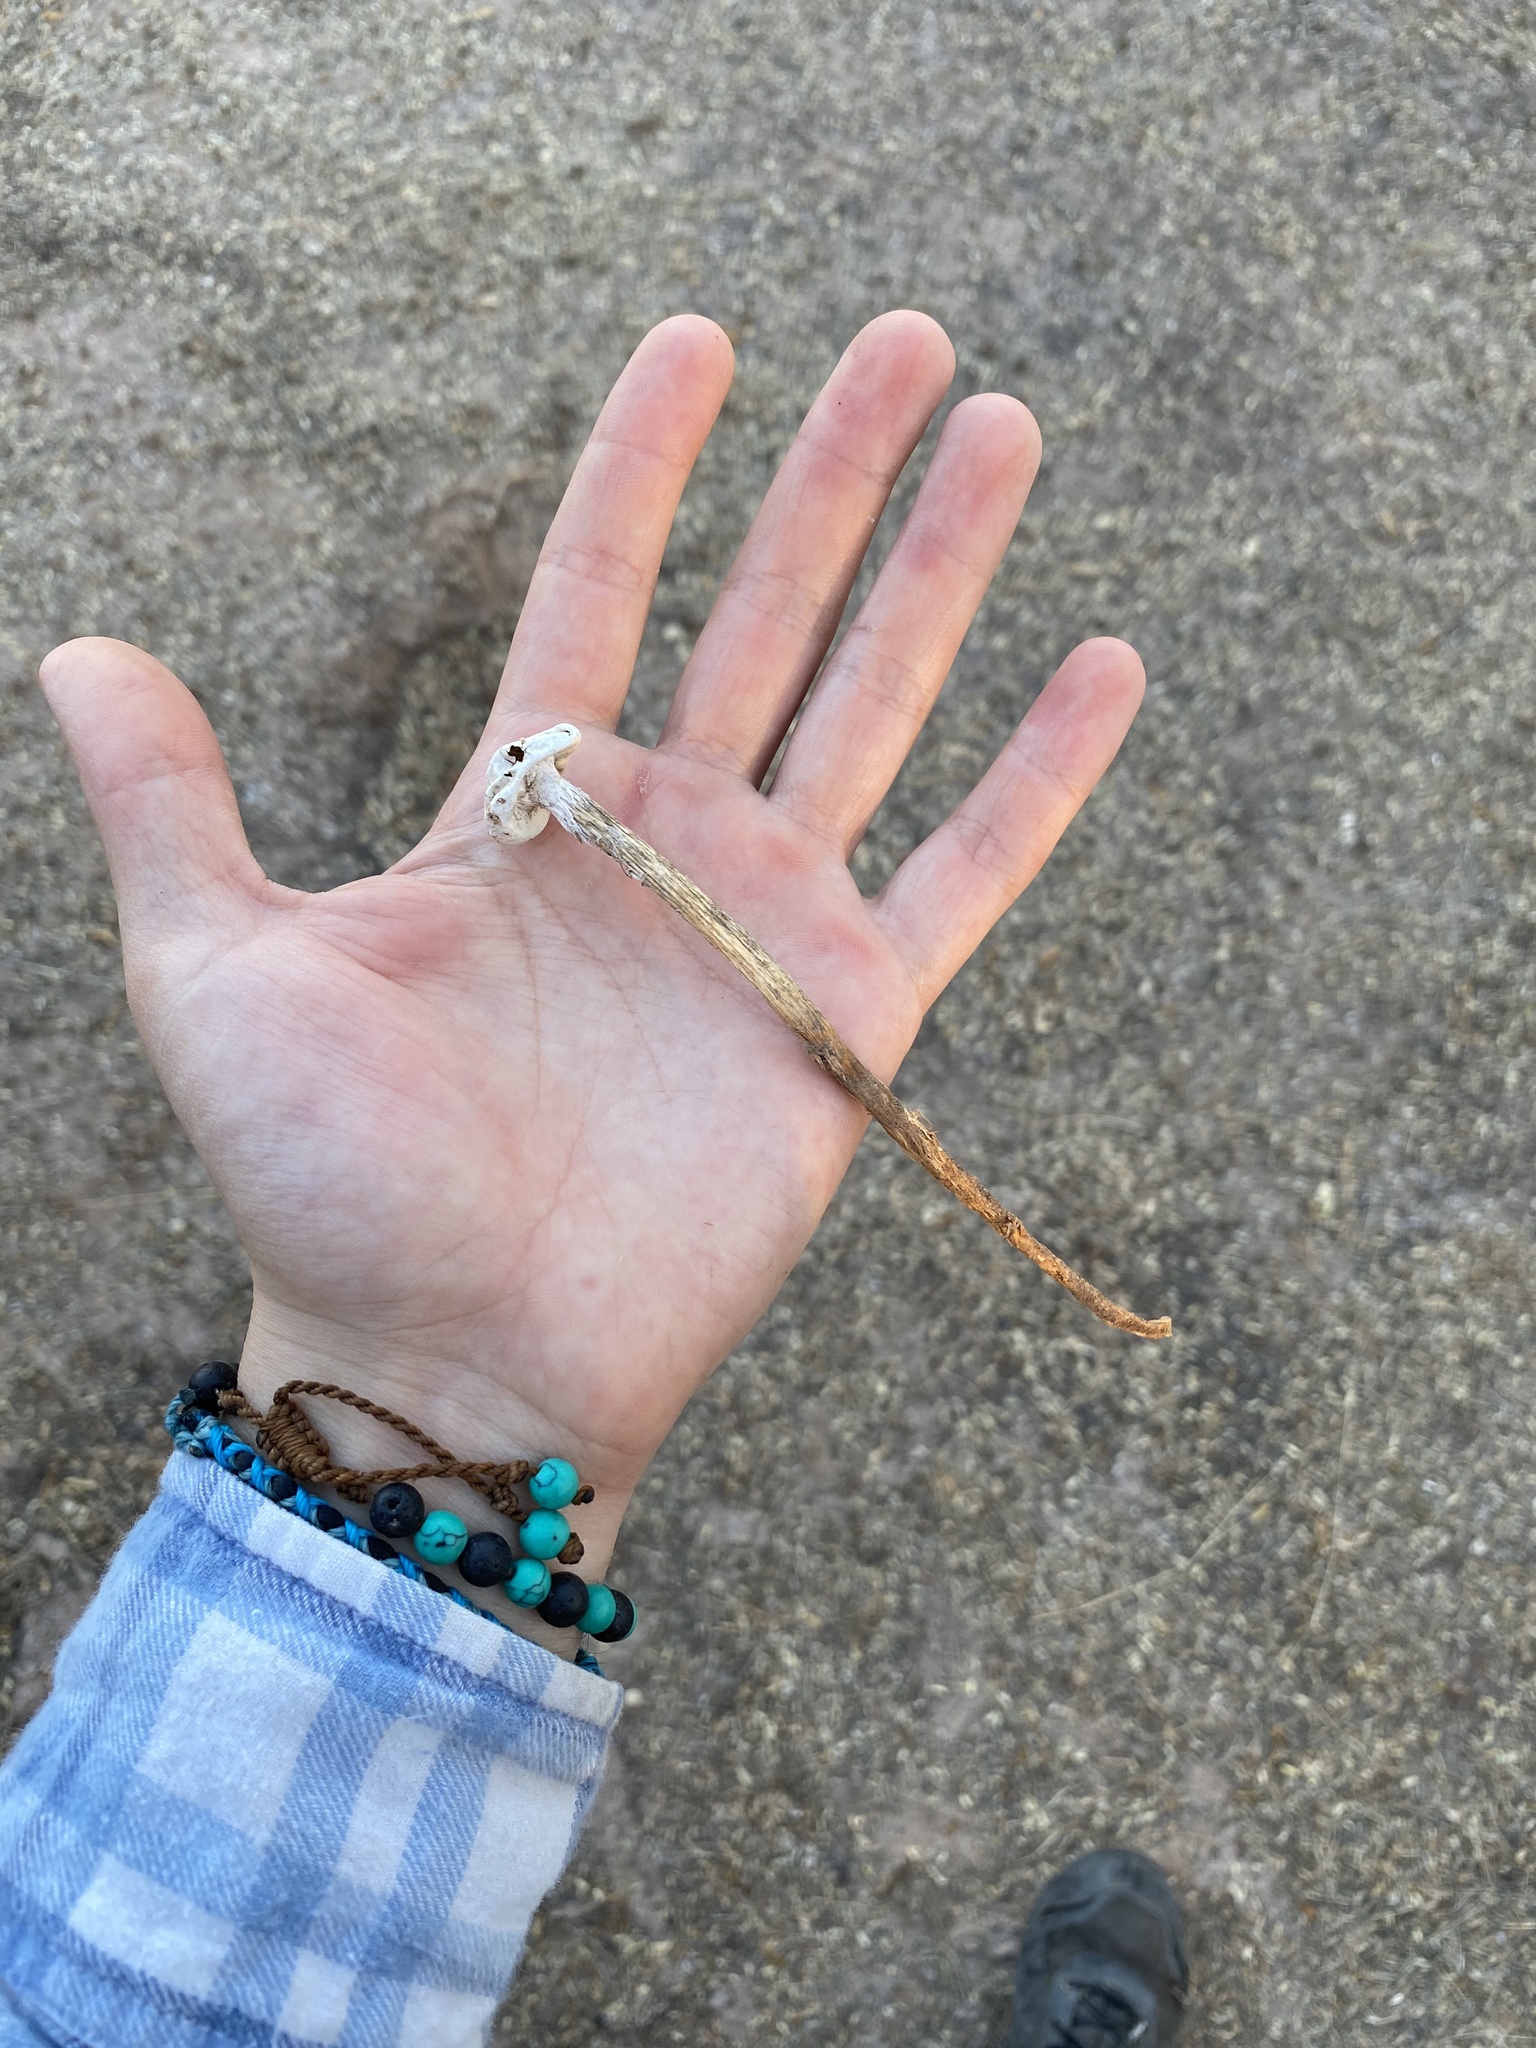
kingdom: Fungi
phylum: Basidiomycota
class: Agaricomycetes
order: Agaricales
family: Agaricaceae
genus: Battarreoides
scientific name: Battarreoides diguetii
